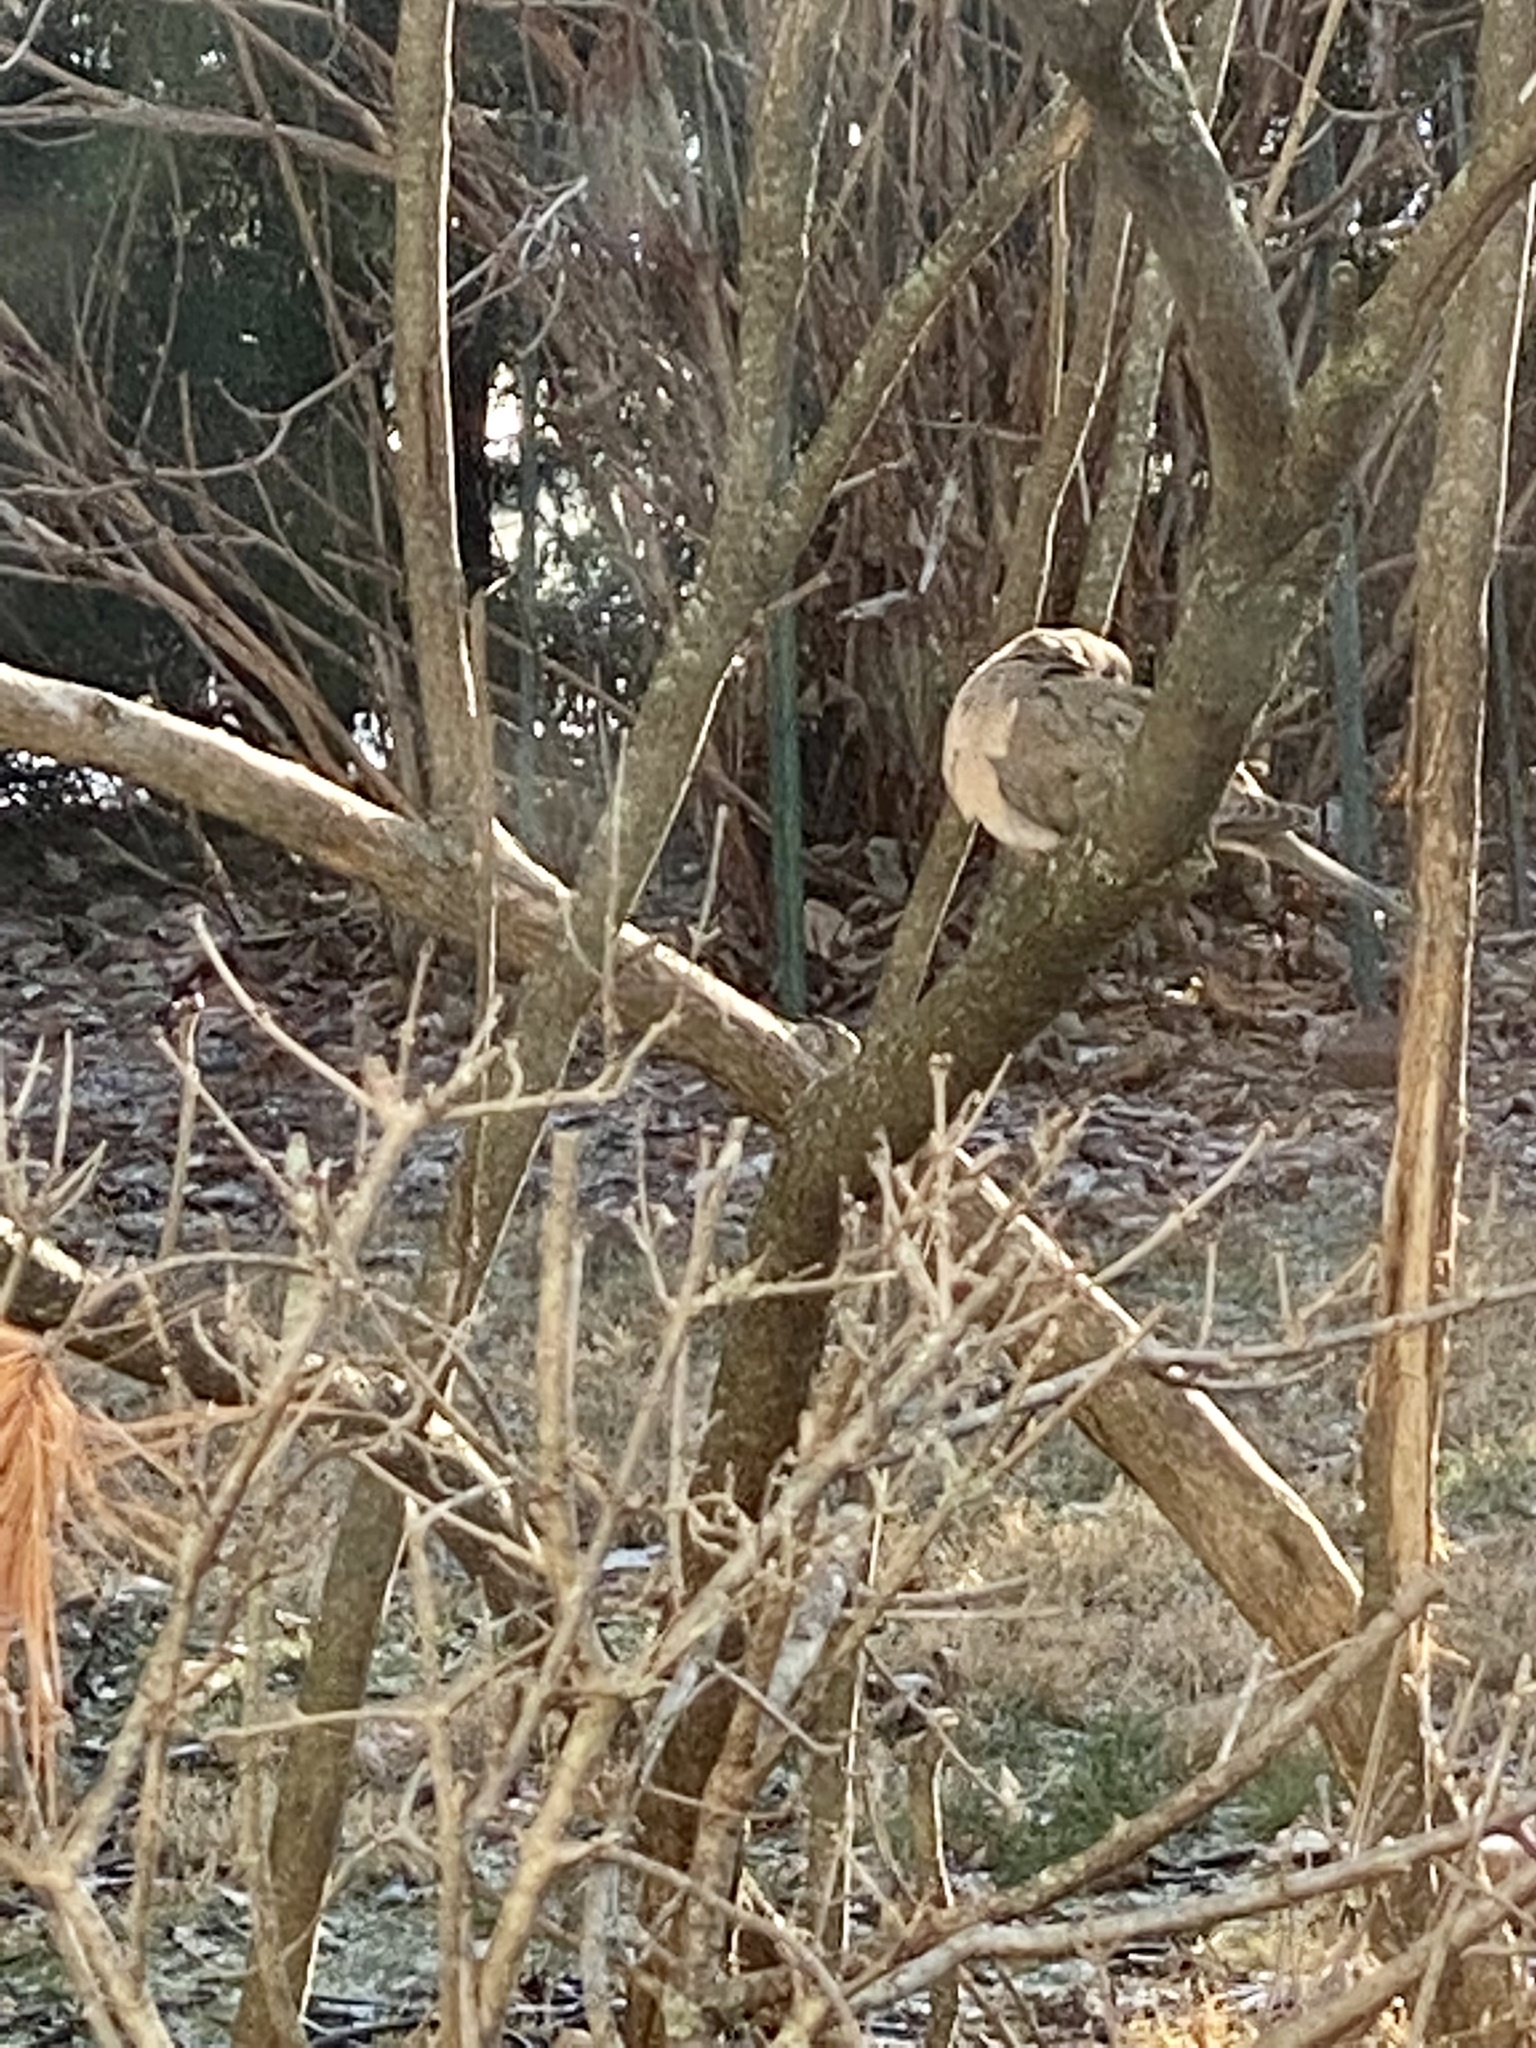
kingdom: Animalia
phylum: Chordata
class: Aves
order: Columbiformes
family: Columbidae
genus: Zenaida
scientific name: Zenaida macroura
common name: Mourning dove
